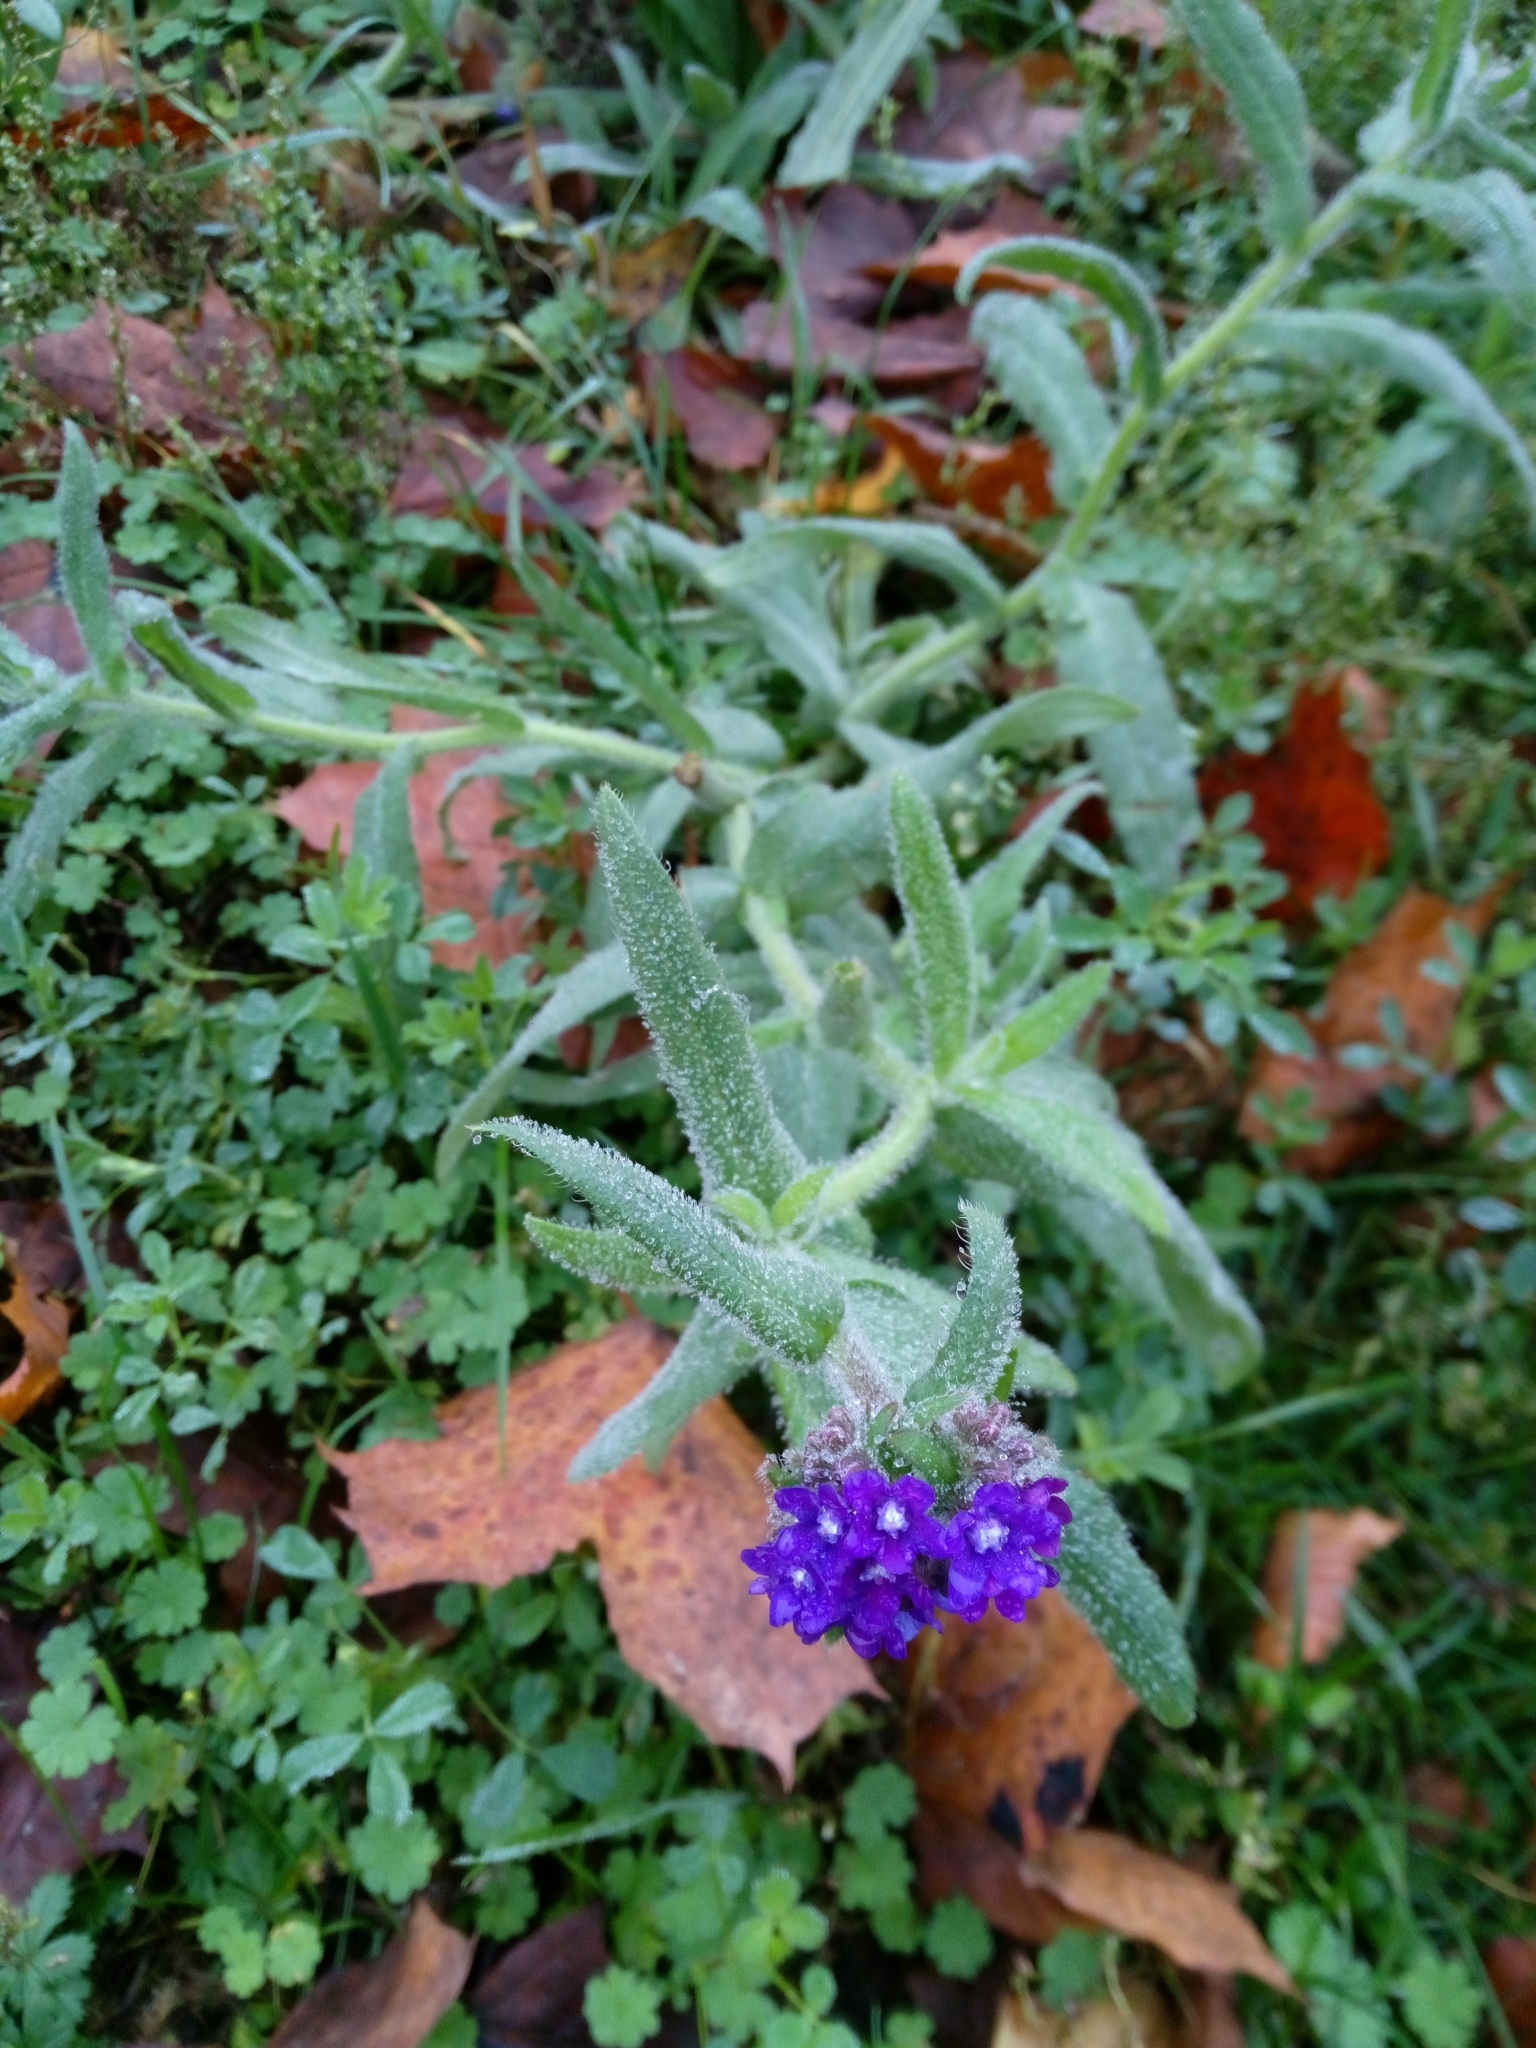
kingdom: Plantae
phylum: Tracheophyta
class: Magnoliopsida
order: Boraginales
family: Boraginaceae
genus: Anchusa
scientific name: Anchusa officinalis
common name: Alkanet
